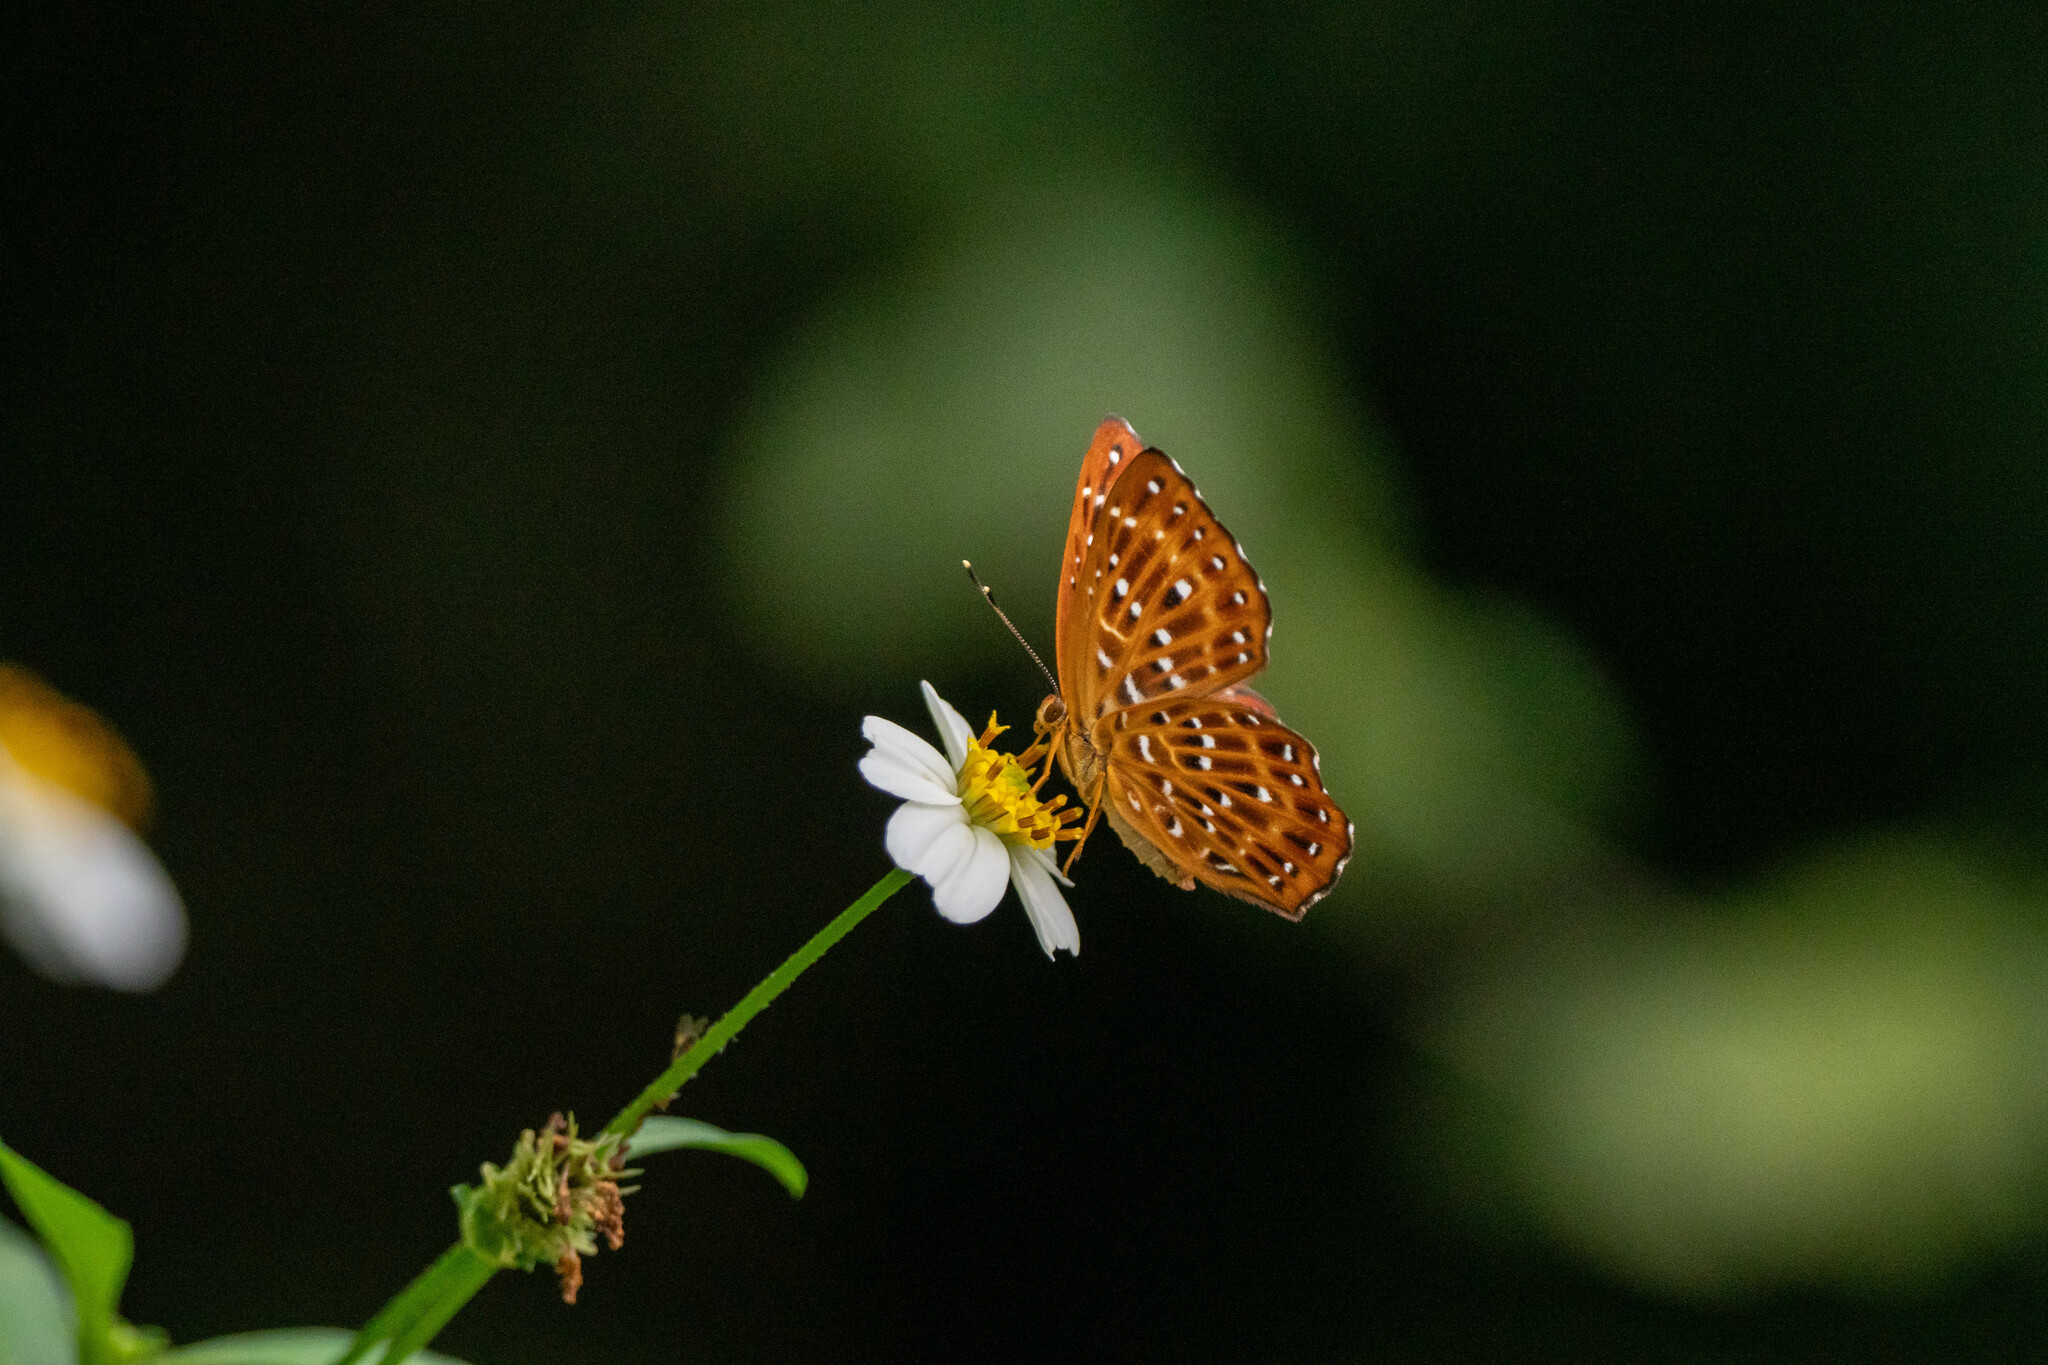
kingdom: Animalia
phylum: Arthropoda
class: Insecta
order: Lepidoptera
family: Riodinidae
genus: Zemeros
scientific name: Zemeros flegyas
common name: Punchinello
